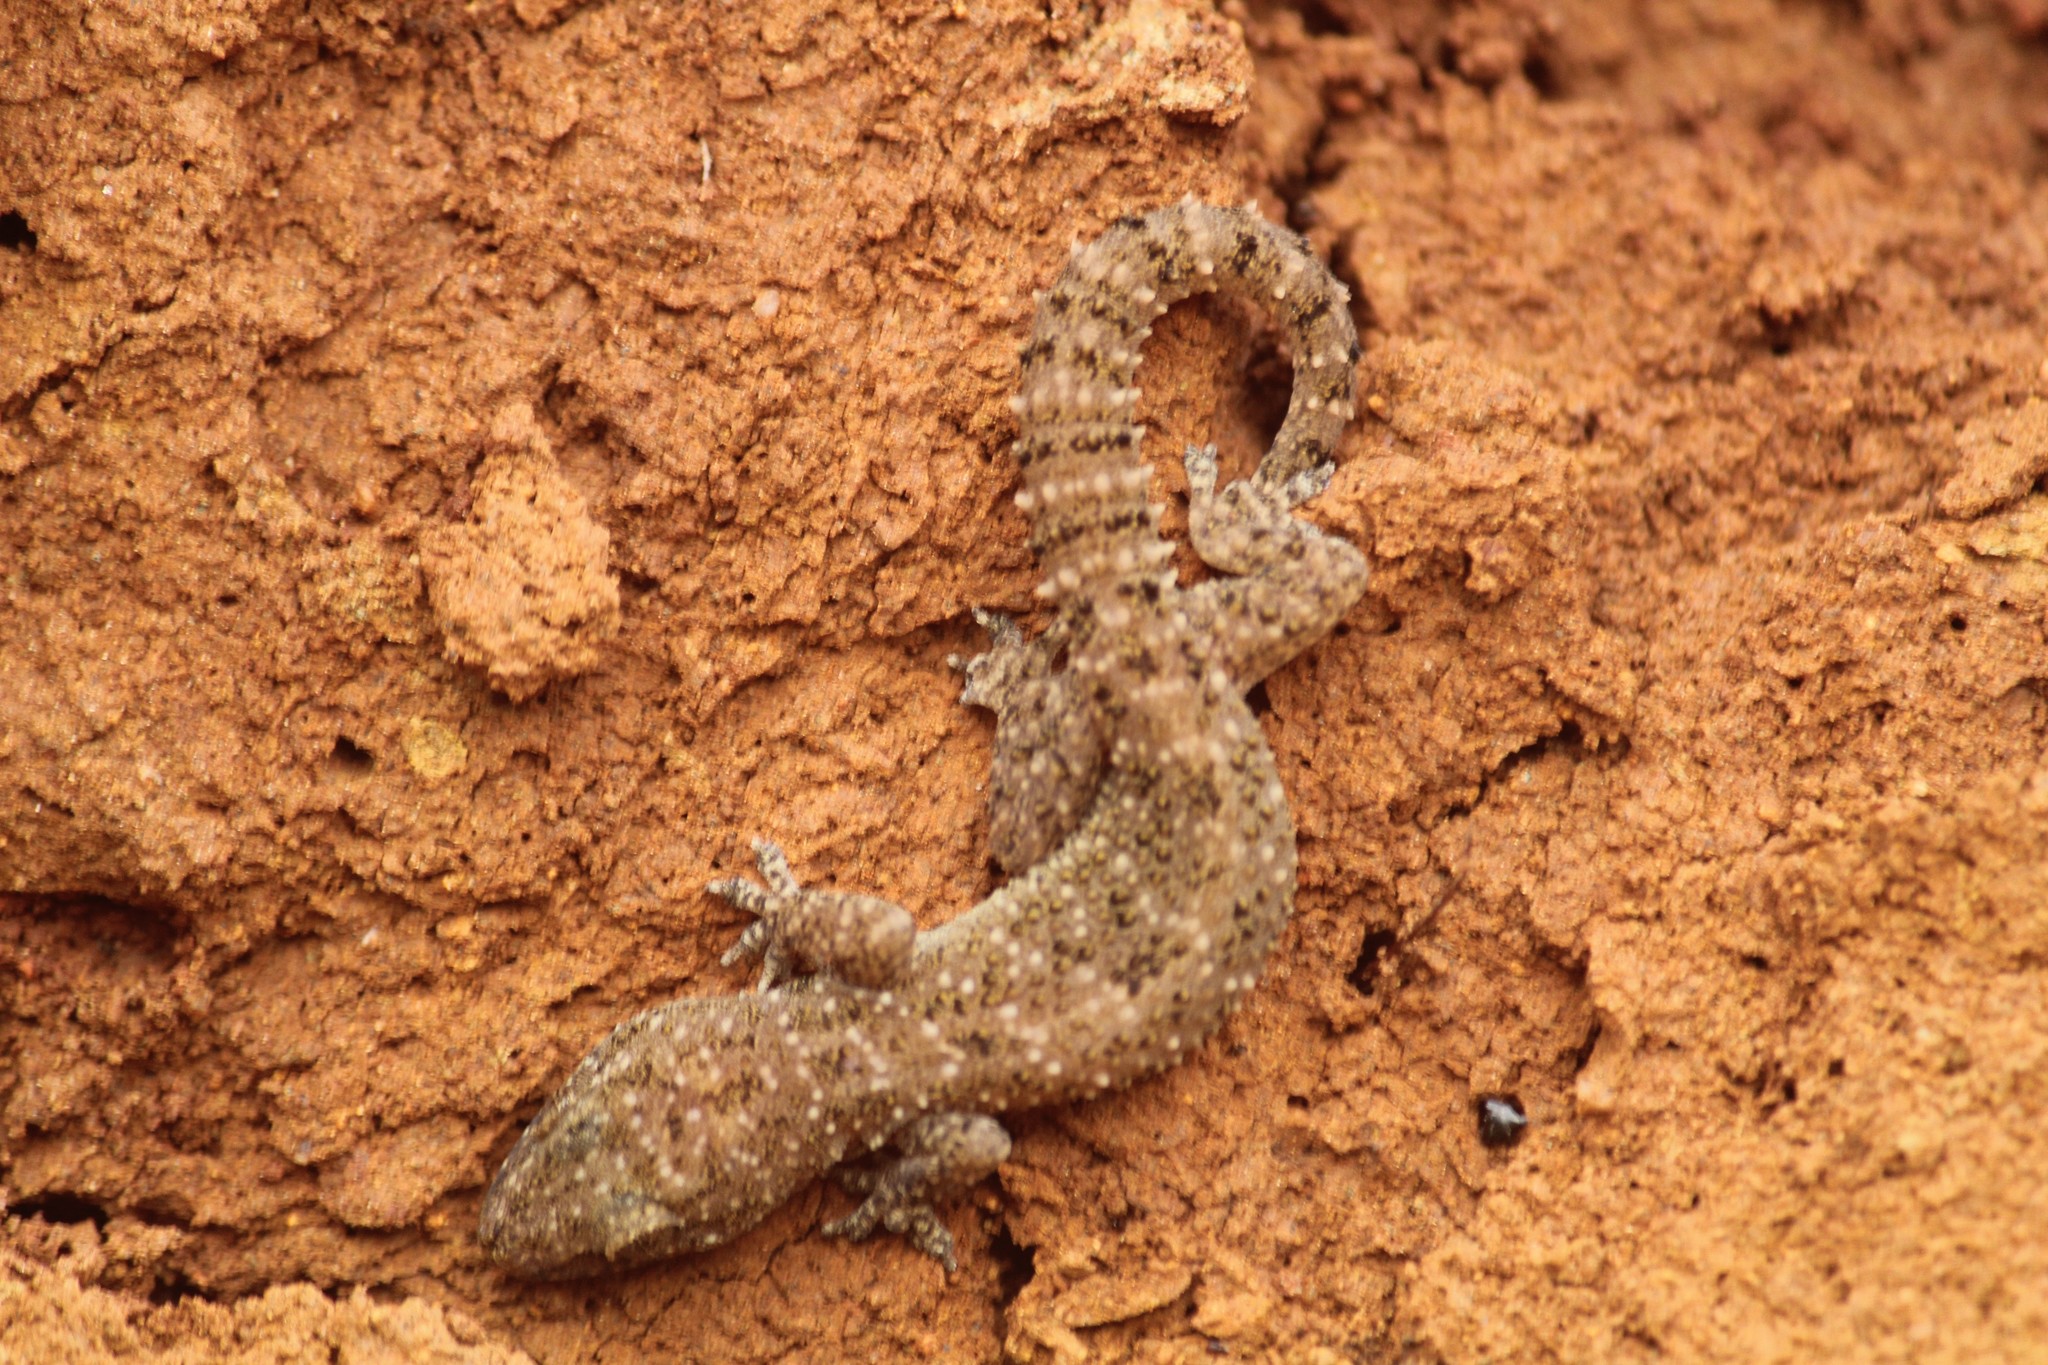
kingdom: Animalia
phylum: Chordata
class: Squamata
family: Gekkonidae
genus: Hemidactylus
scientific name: Hemidactylus parvimaculatus
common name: Spotted house gecko
